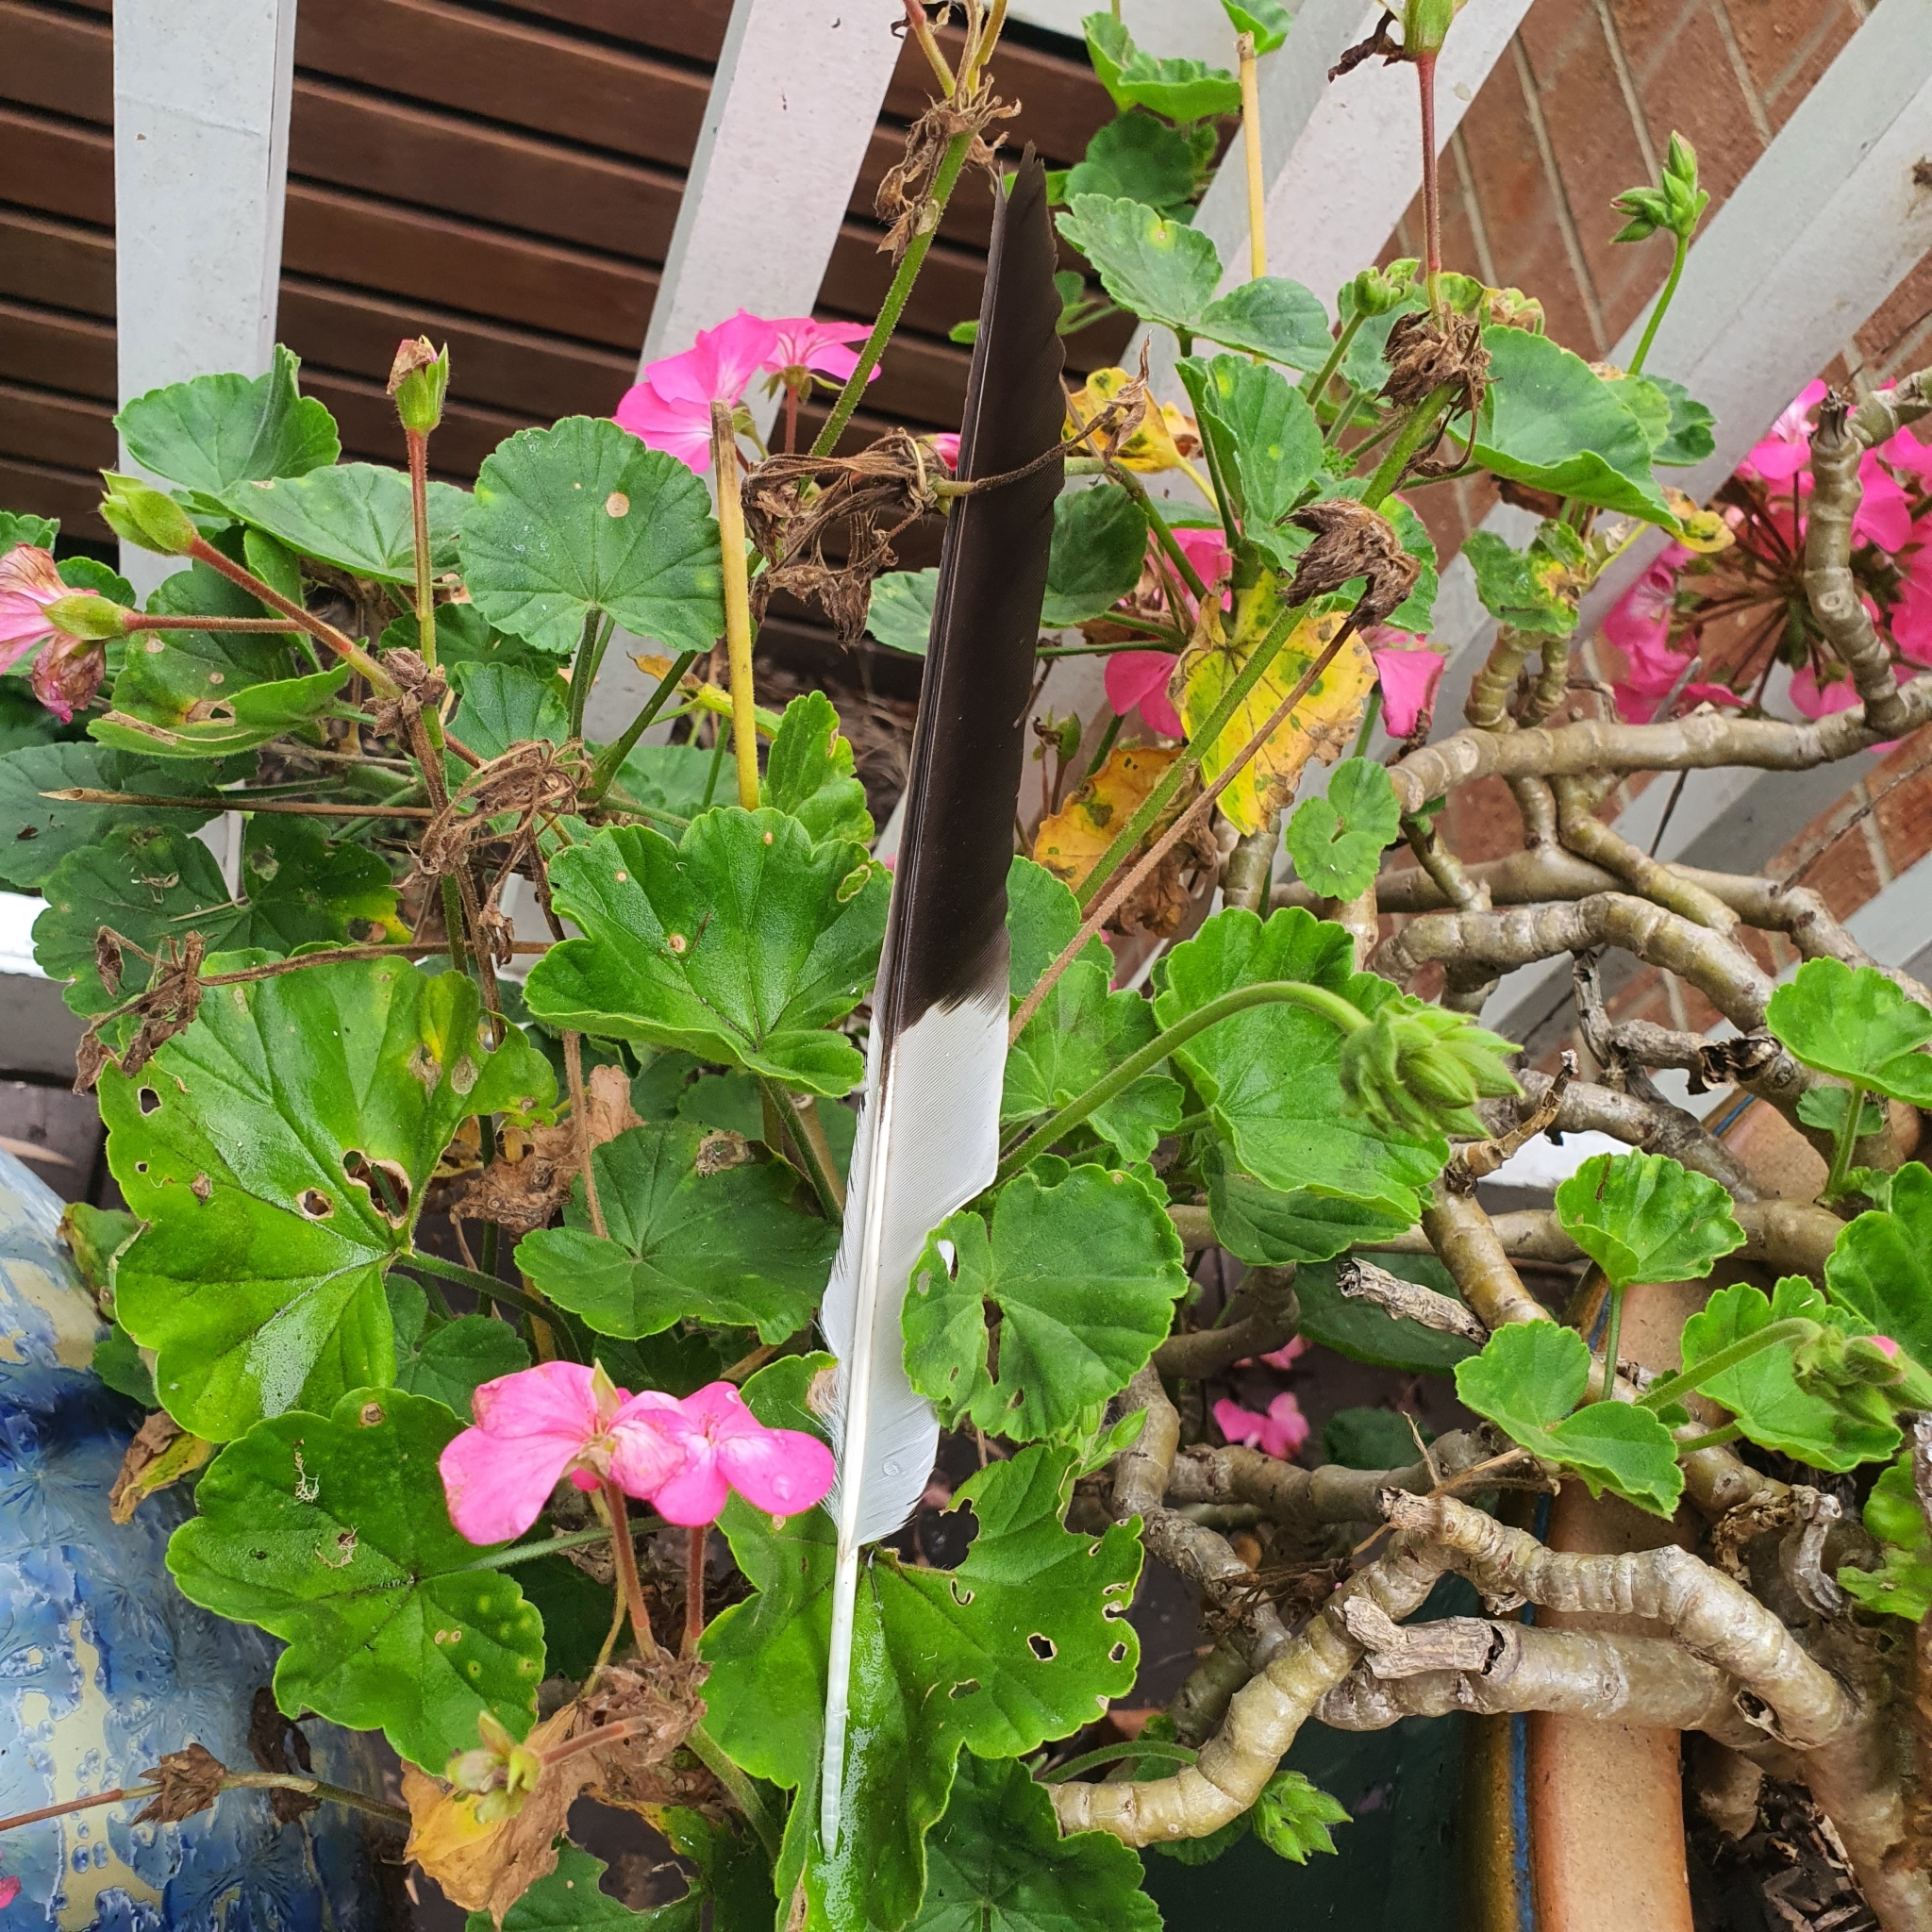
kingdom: Animalia
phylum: Chordata
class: Aves
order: Passeriformes
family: Cracticidae
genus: Strepera
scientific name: Strepera graculina
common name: Pied currawong
